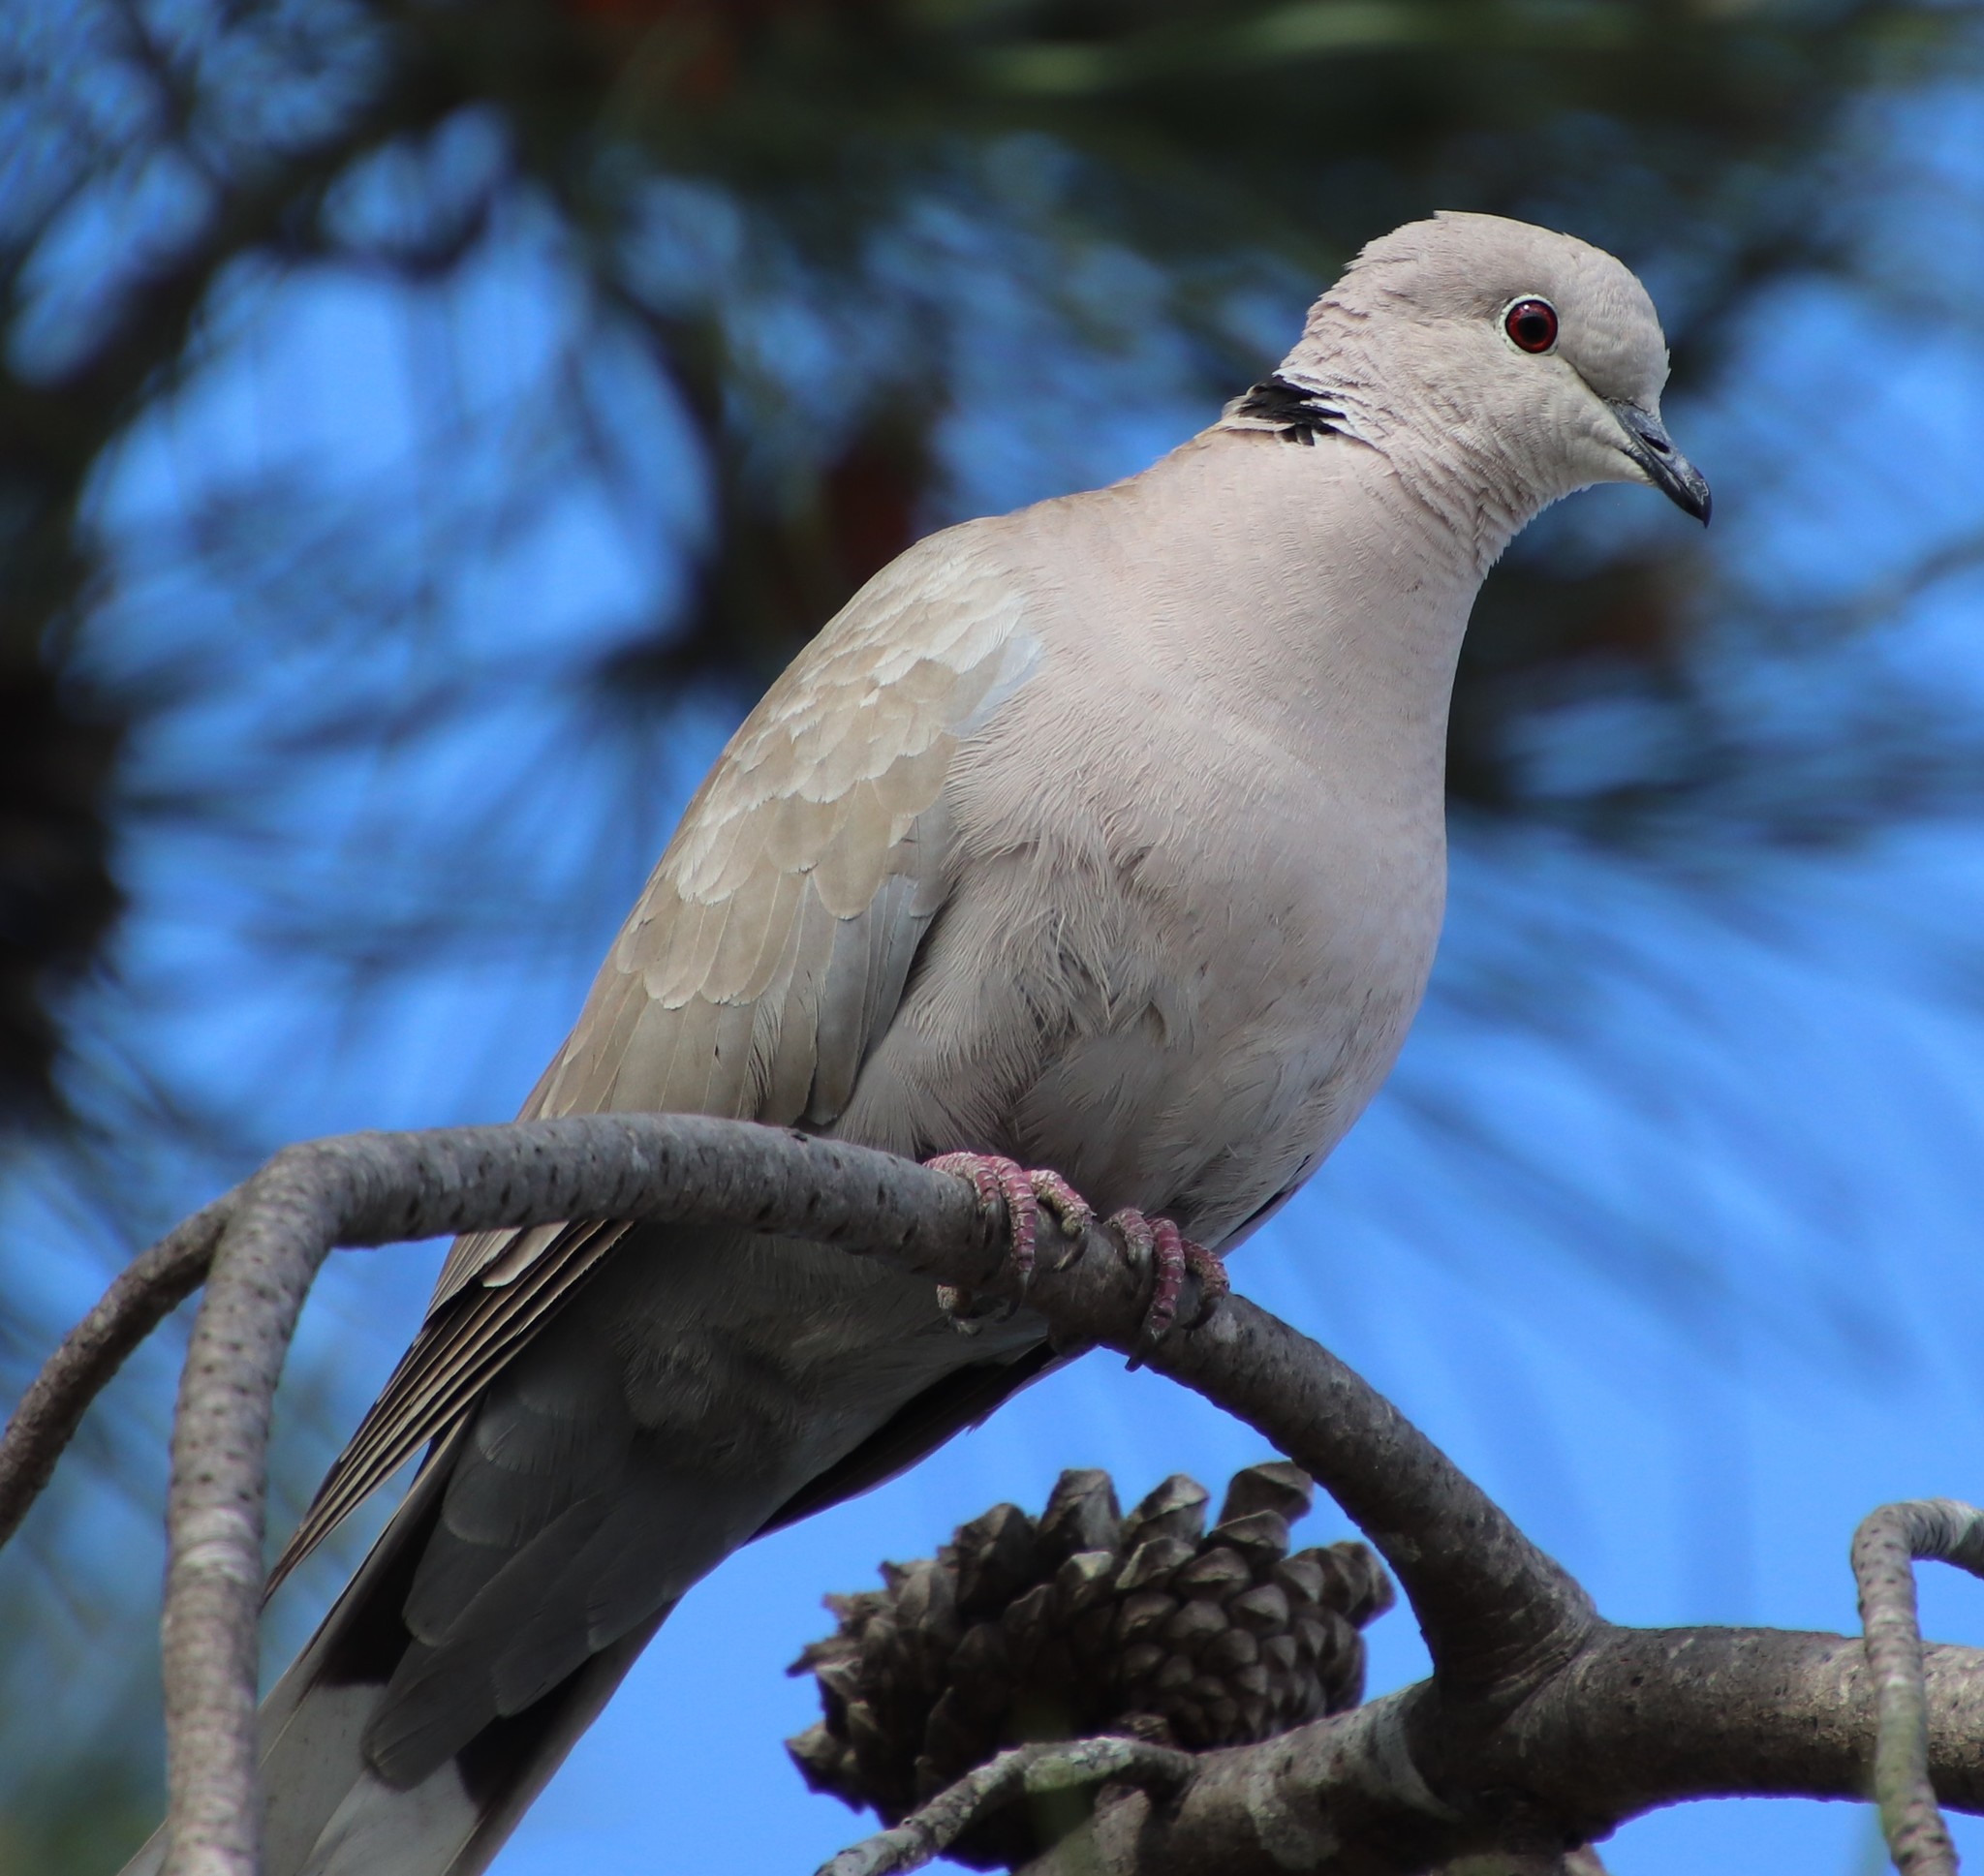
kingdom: Animalia
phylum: Chordata
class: Aves
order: Columbiformes
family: Columbidae
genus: Streptopelia
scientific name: Streptopelia decaocto
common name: Eurasian collared dove
